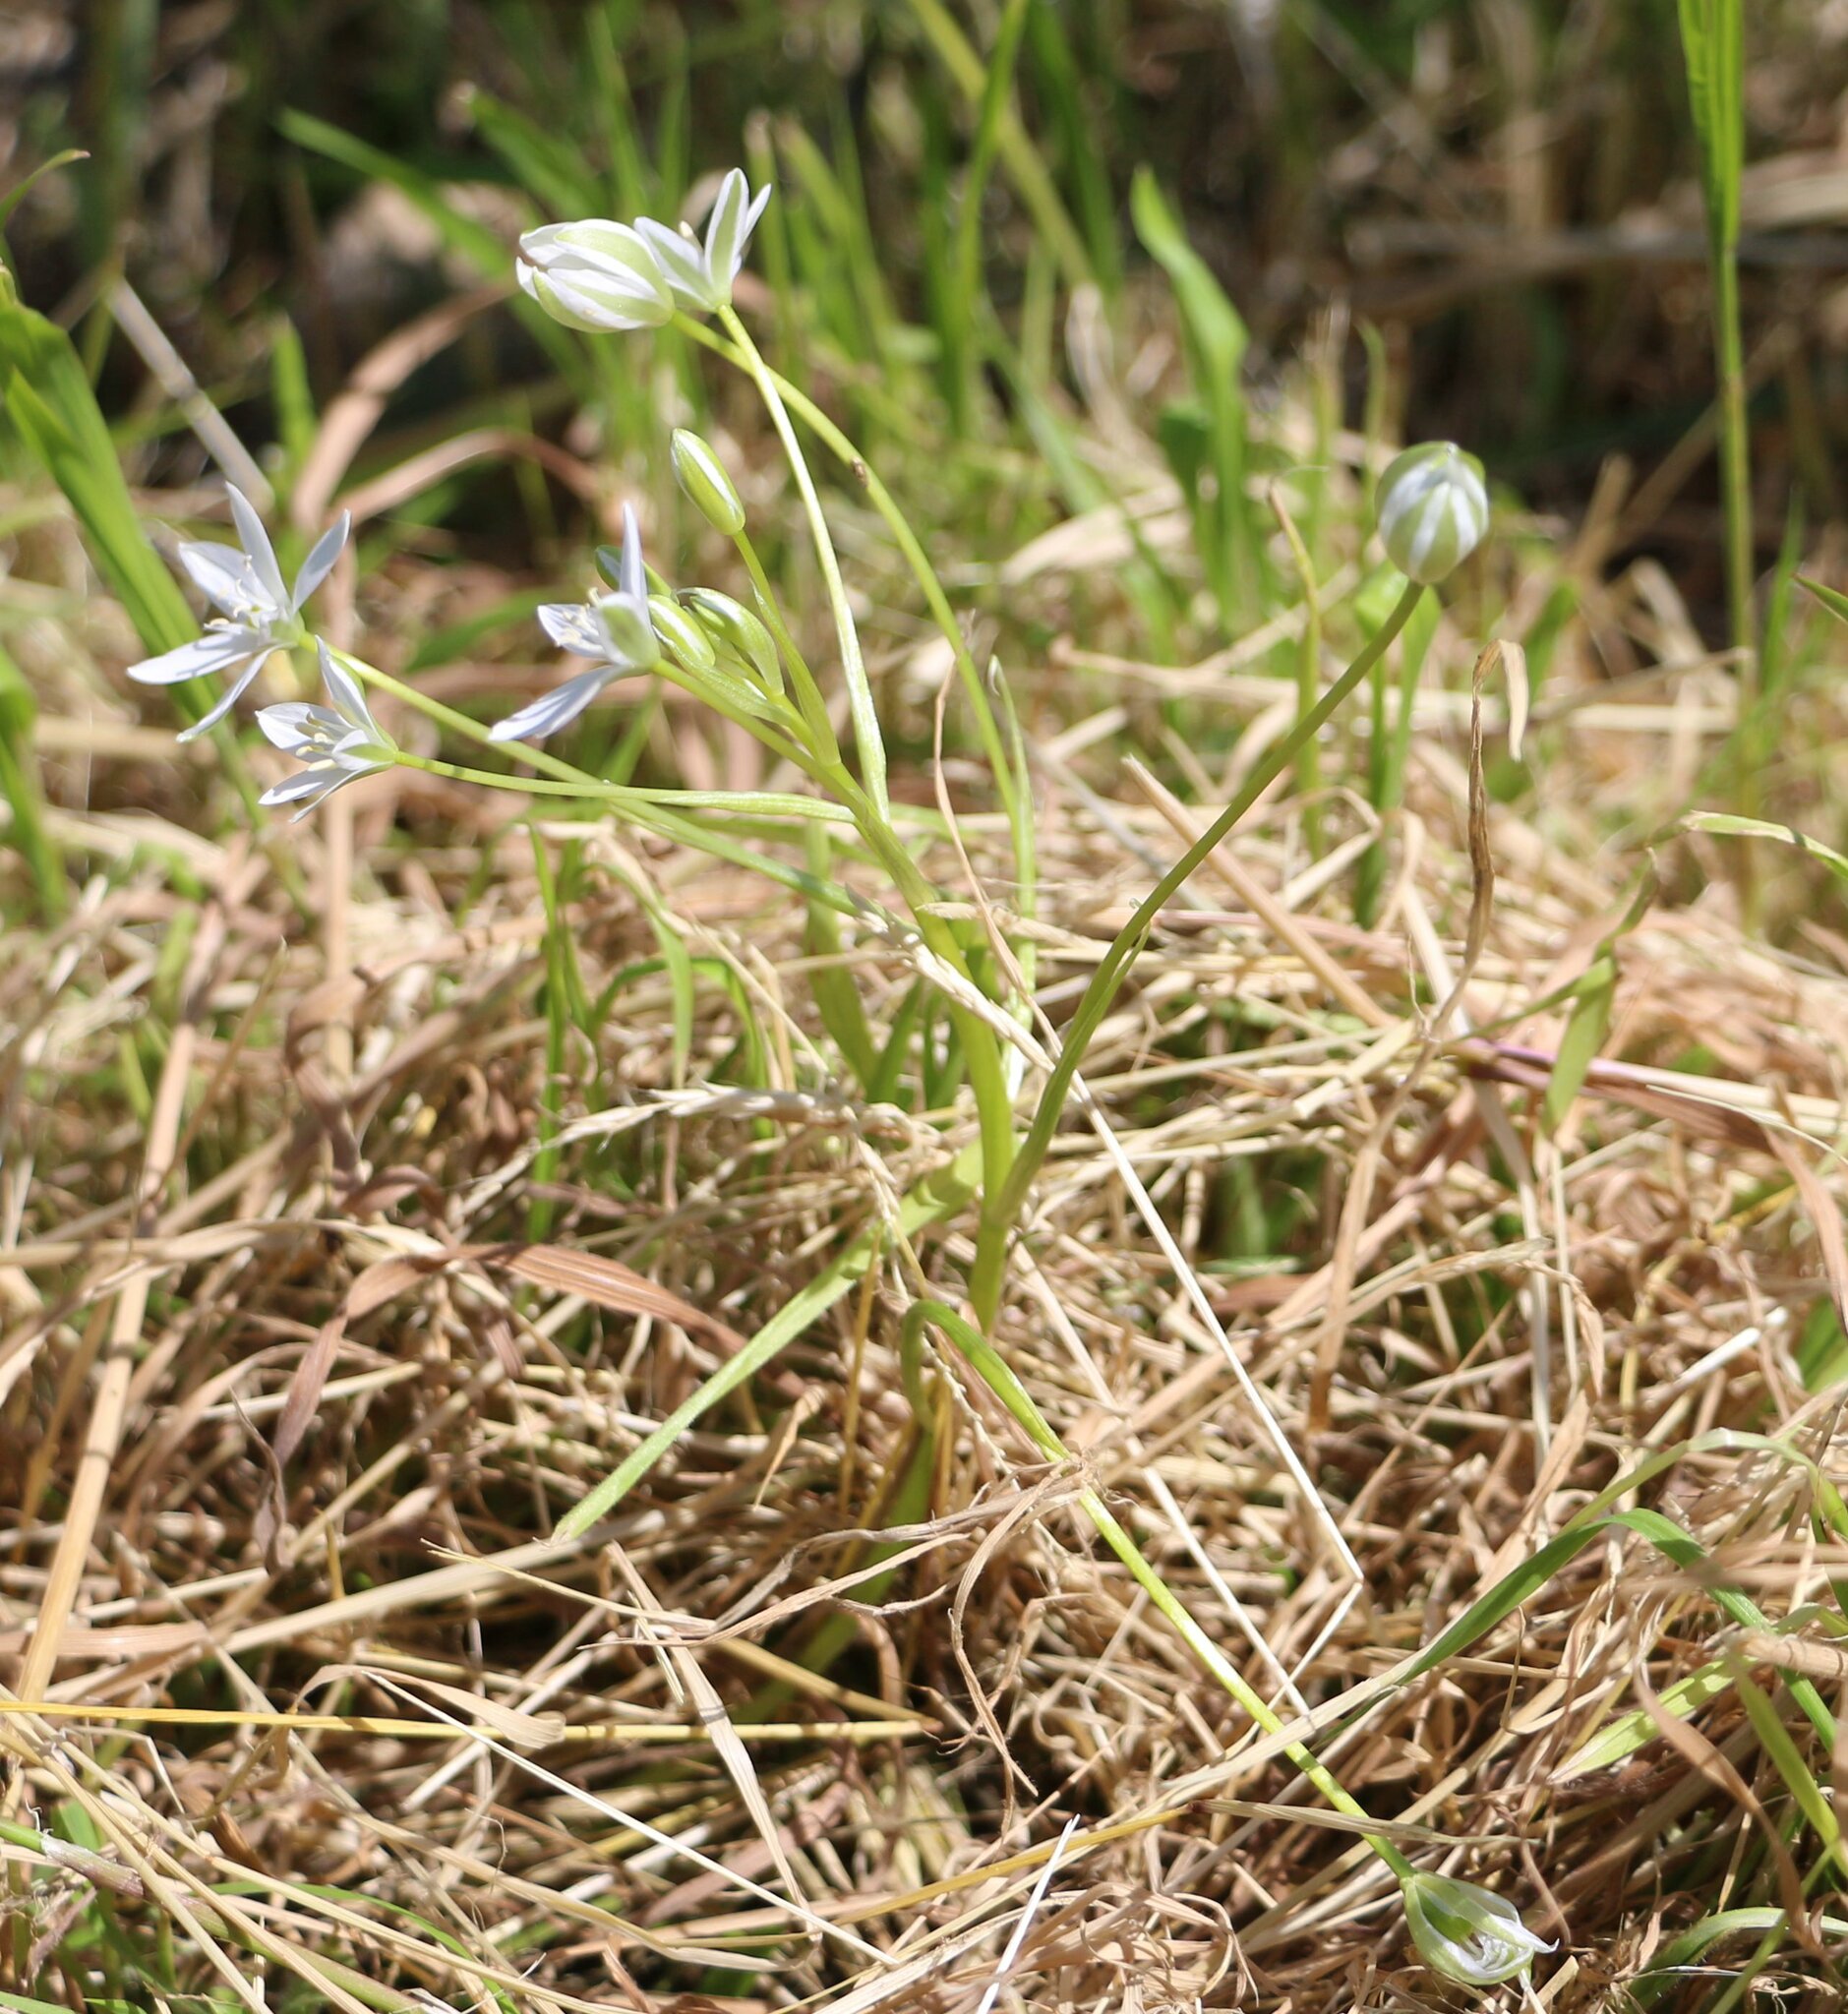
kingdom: Plantae
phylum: Tracheophyta
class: Liliopsida
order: Asparagales
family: Asparagaceae
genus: Ornithogalum
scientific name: Ornithogalum woronowii
